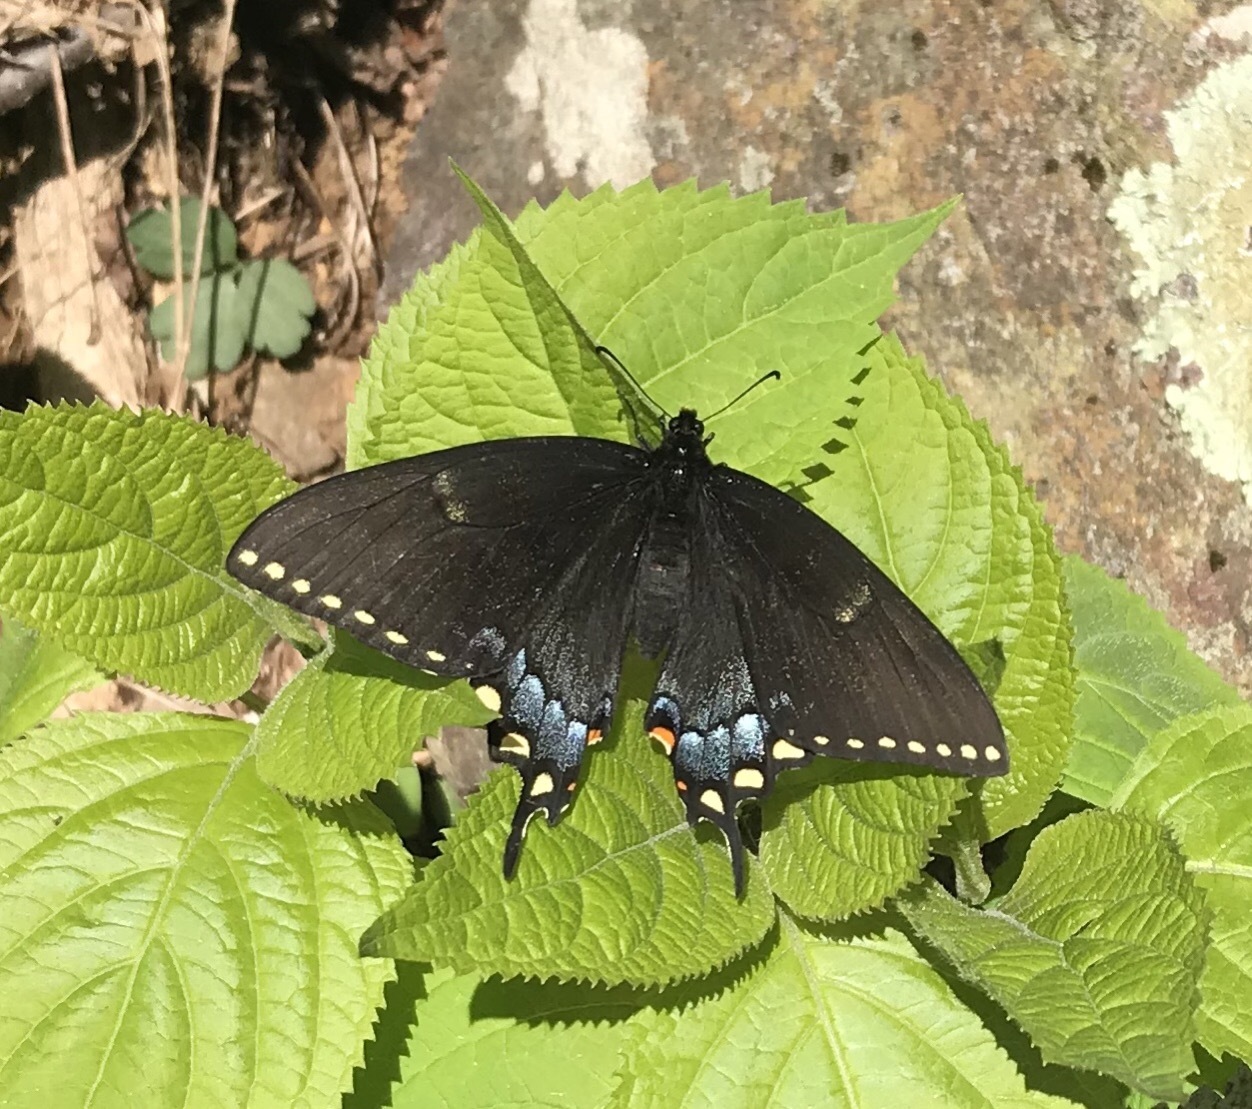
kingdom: Animalia
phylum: Arthropoda
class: Insecta
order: Lepidoptera
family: Papilionidae
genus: Papilio
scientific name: Papilio glaucus
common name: Tiger swallowtail
